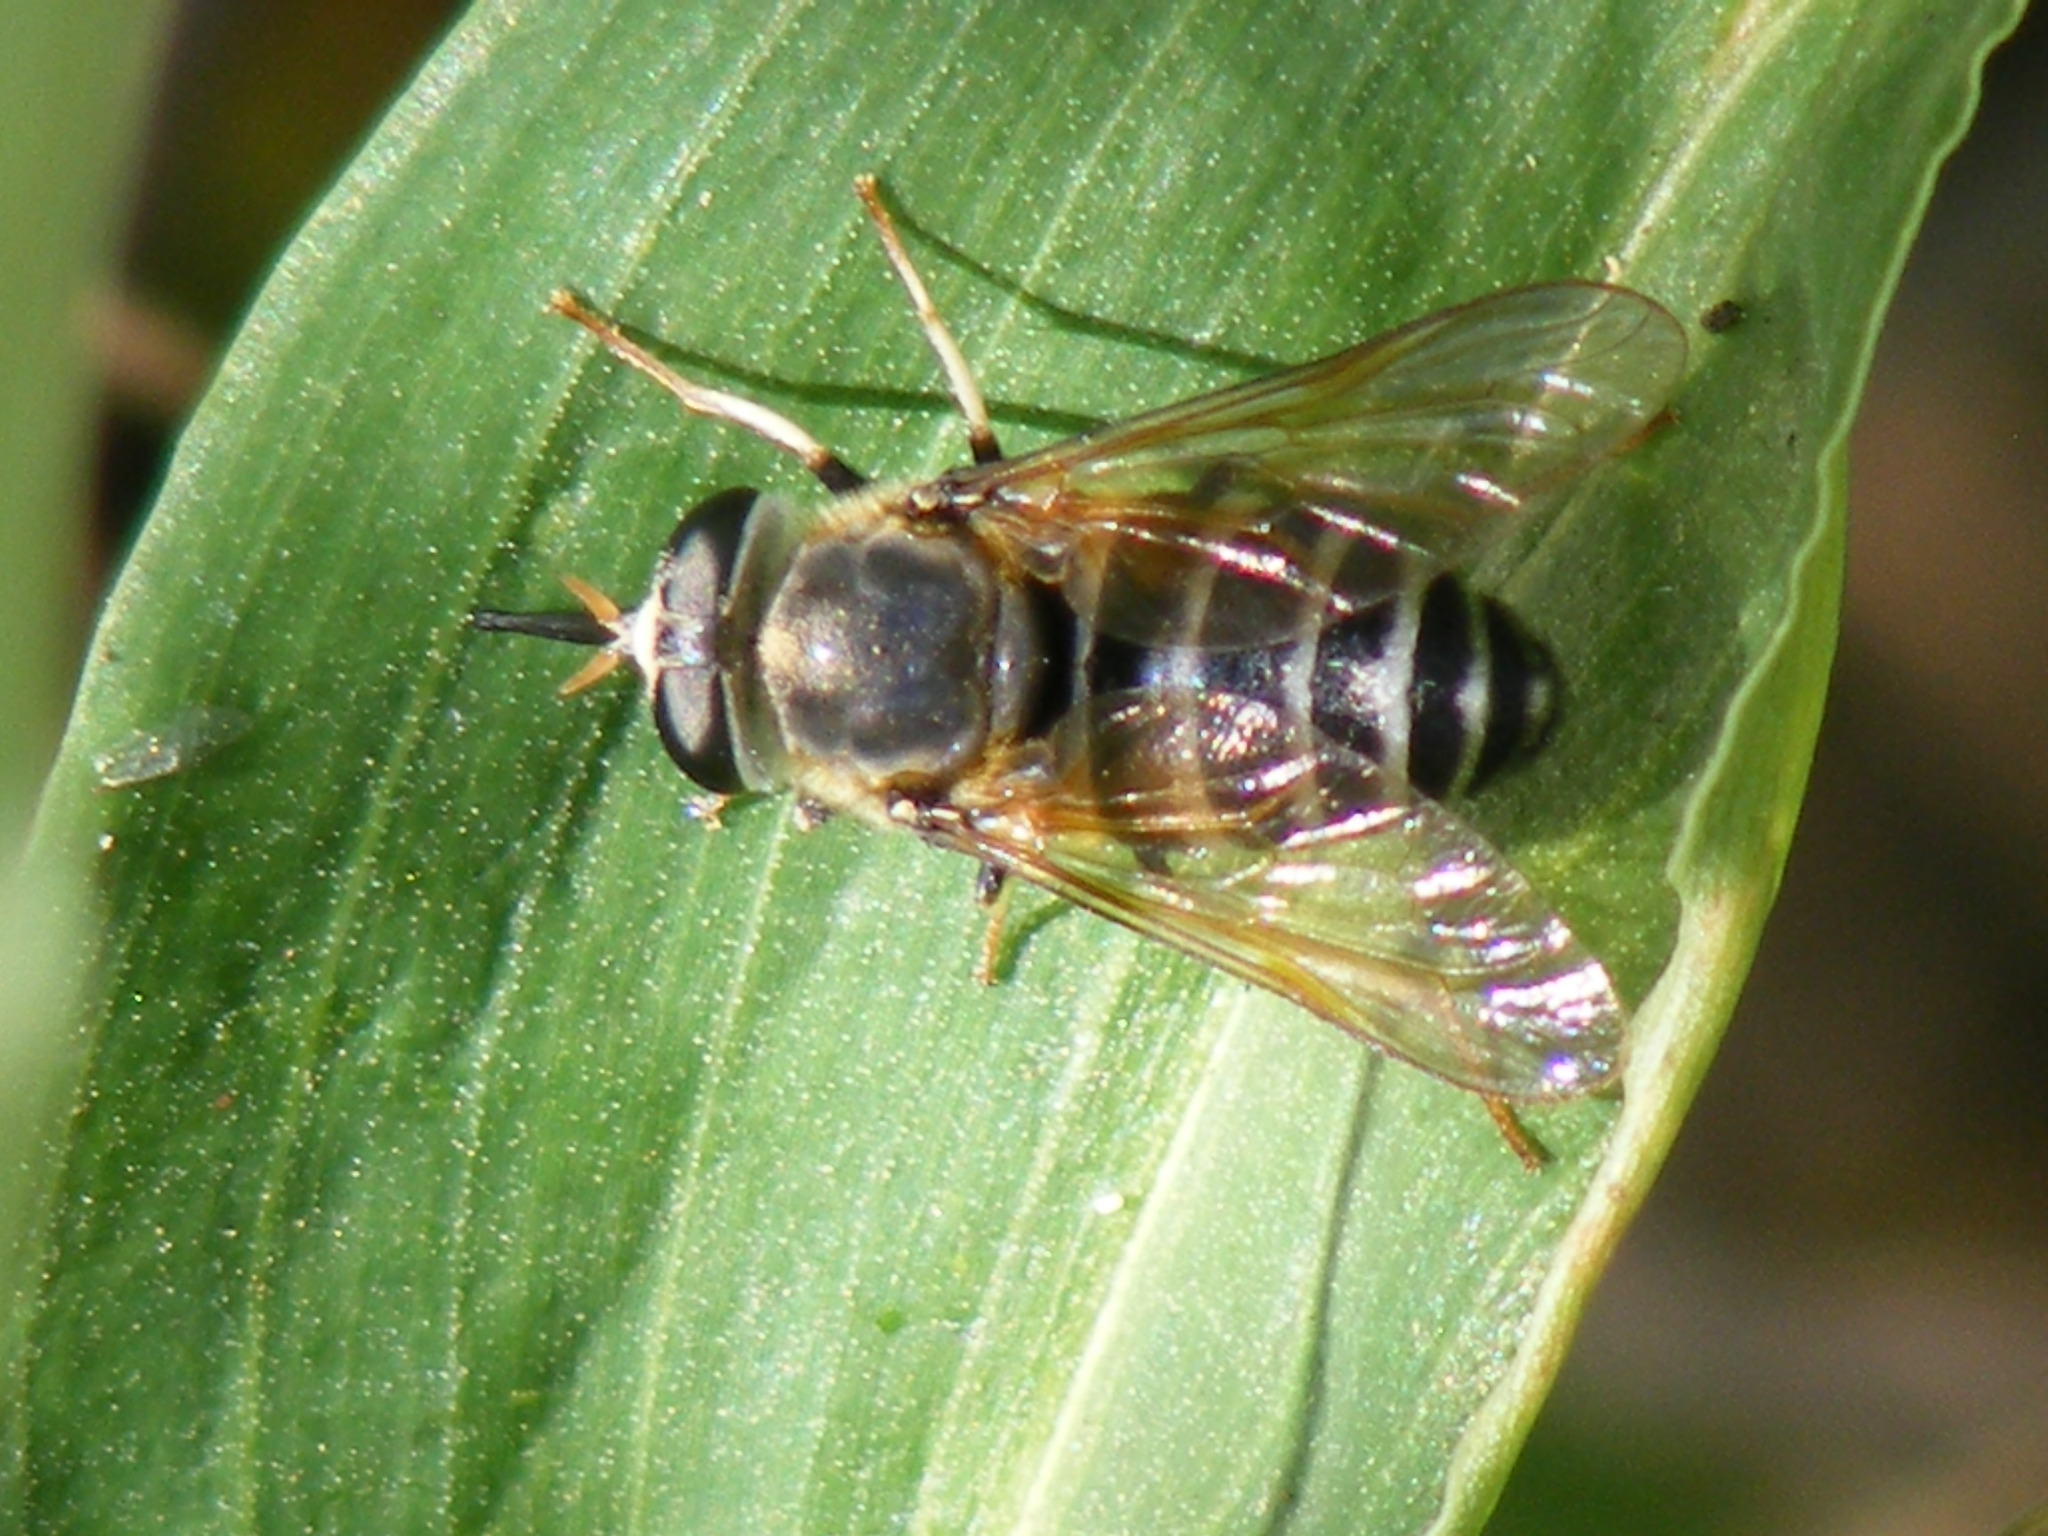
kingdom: Animalia
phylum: Arthropoda
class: Insecta
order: Diptera
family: Tabanidae
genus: Philoliche
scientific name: Philoliche silverlocki
